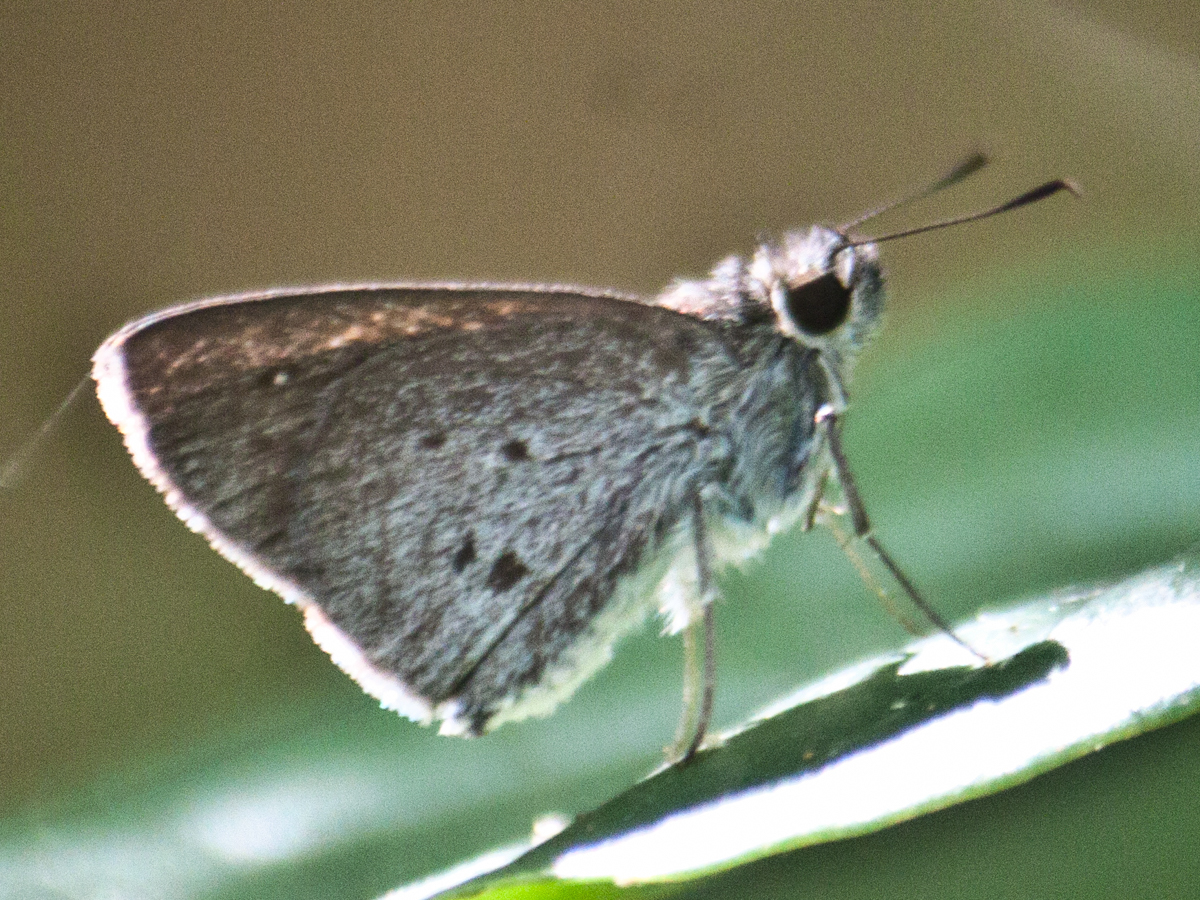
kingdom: Animalia
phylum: Arthropoda
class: Insecta
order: Lepidoptera
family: Hesperiidae
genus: Suastus
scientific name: Suastus minuta
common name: Small palm bob
